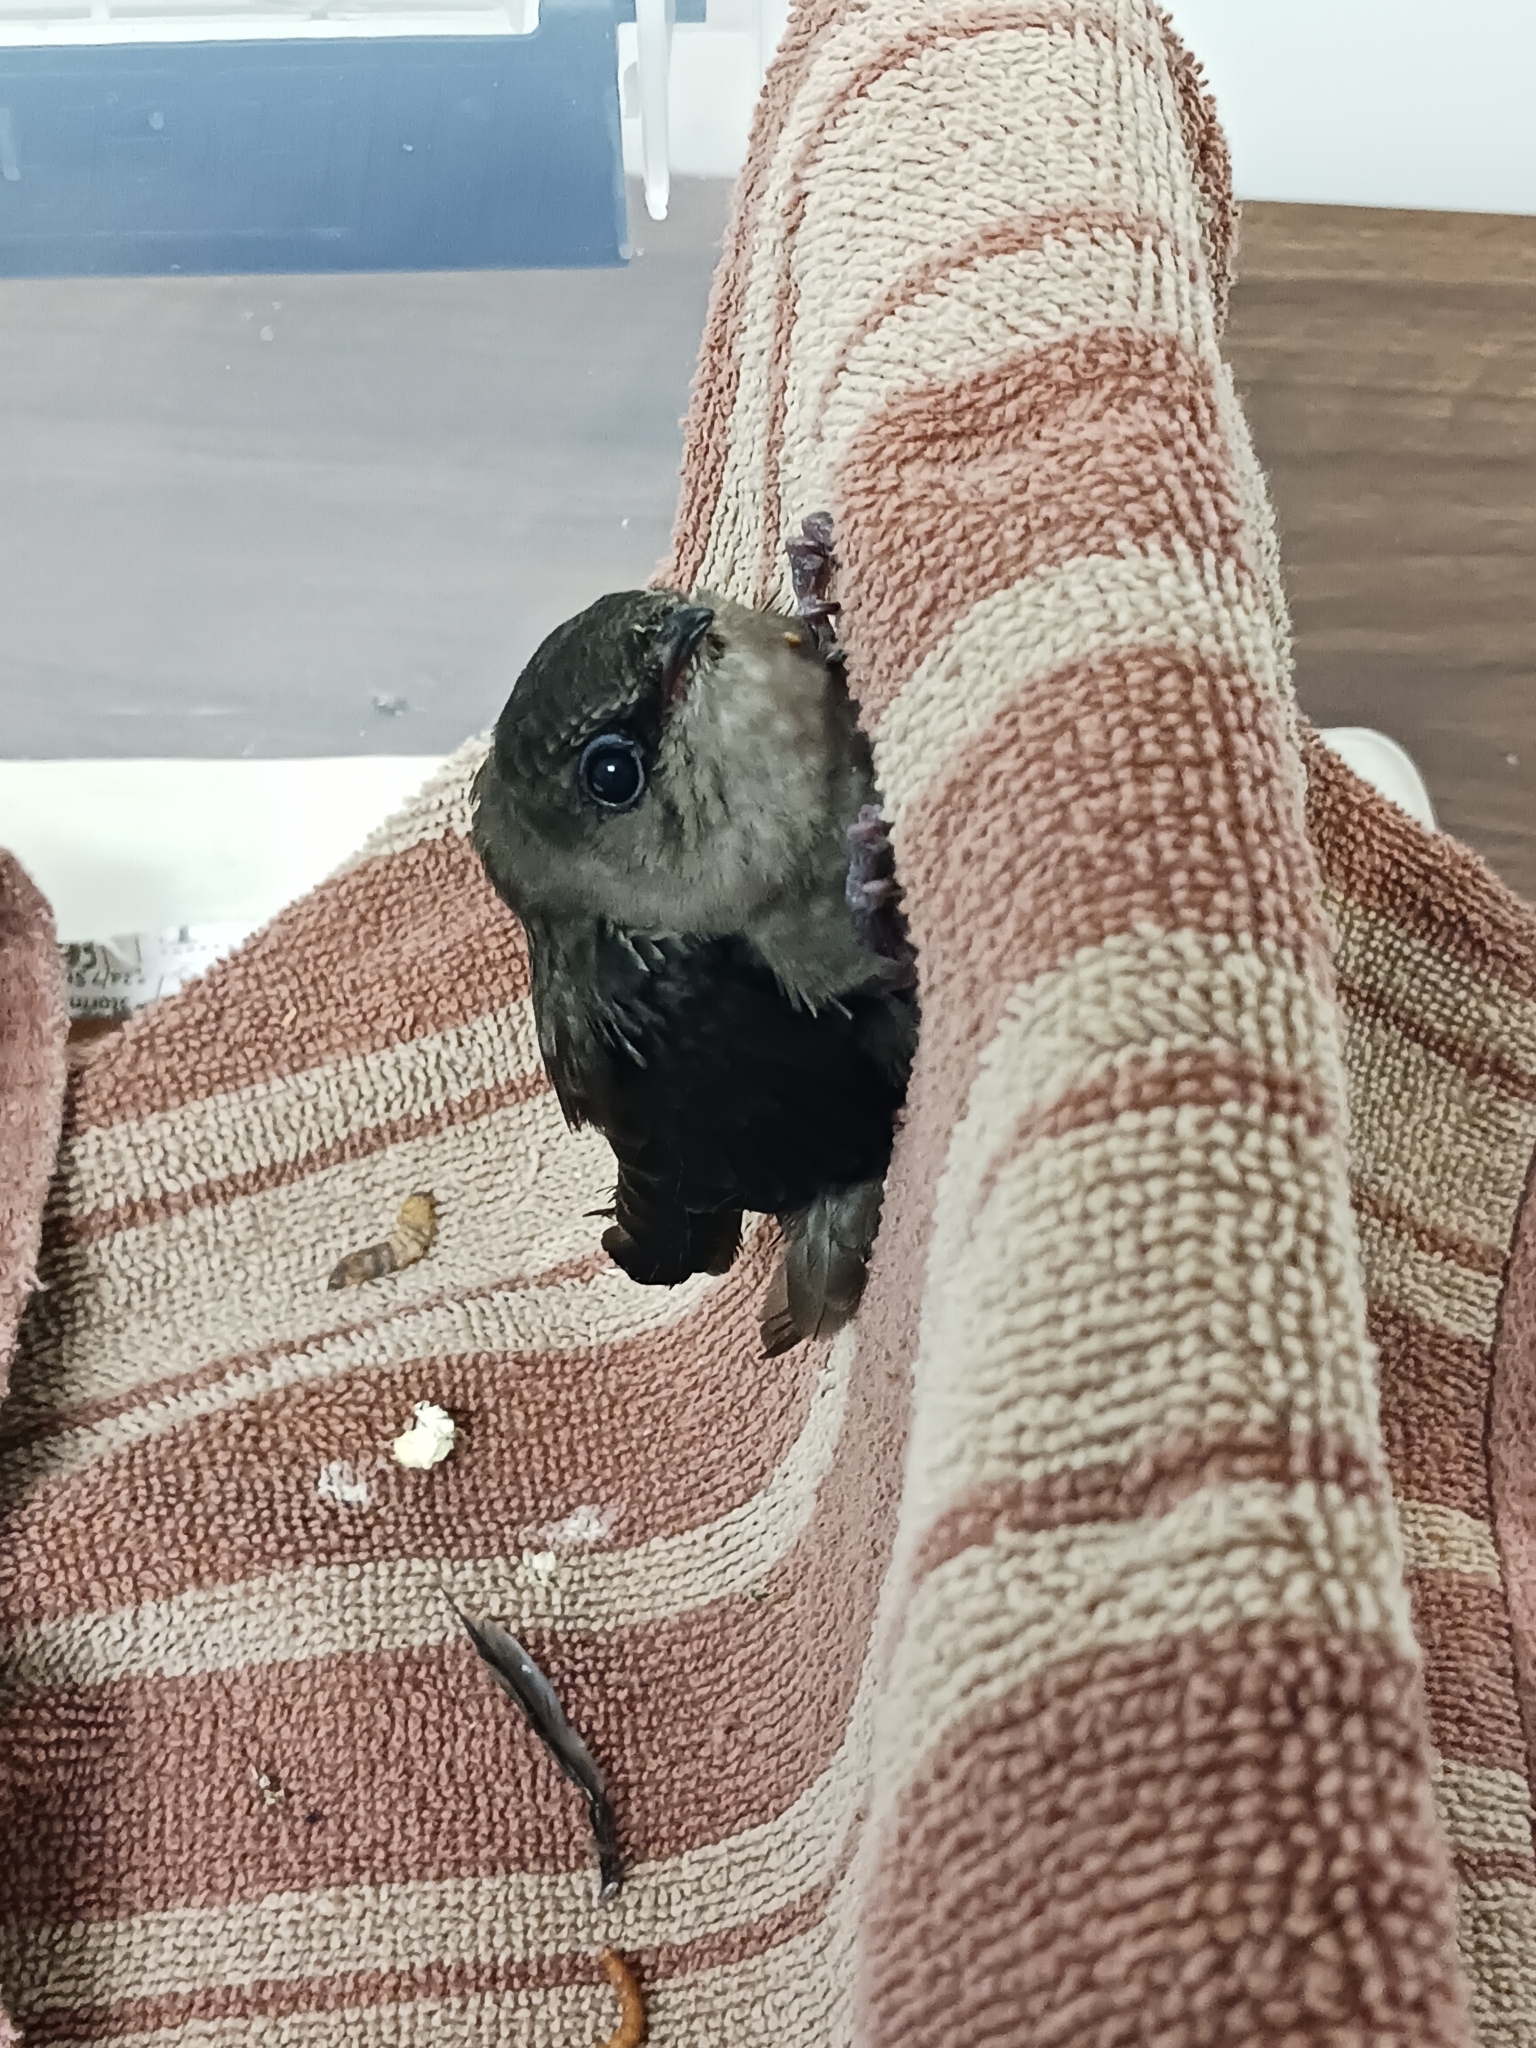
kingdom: Animalia
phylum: Chordata
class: Aves
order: Apodiformes
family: Apodidae
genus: Chaetura
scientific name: Chaetura pelagica
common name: Chimney swift
